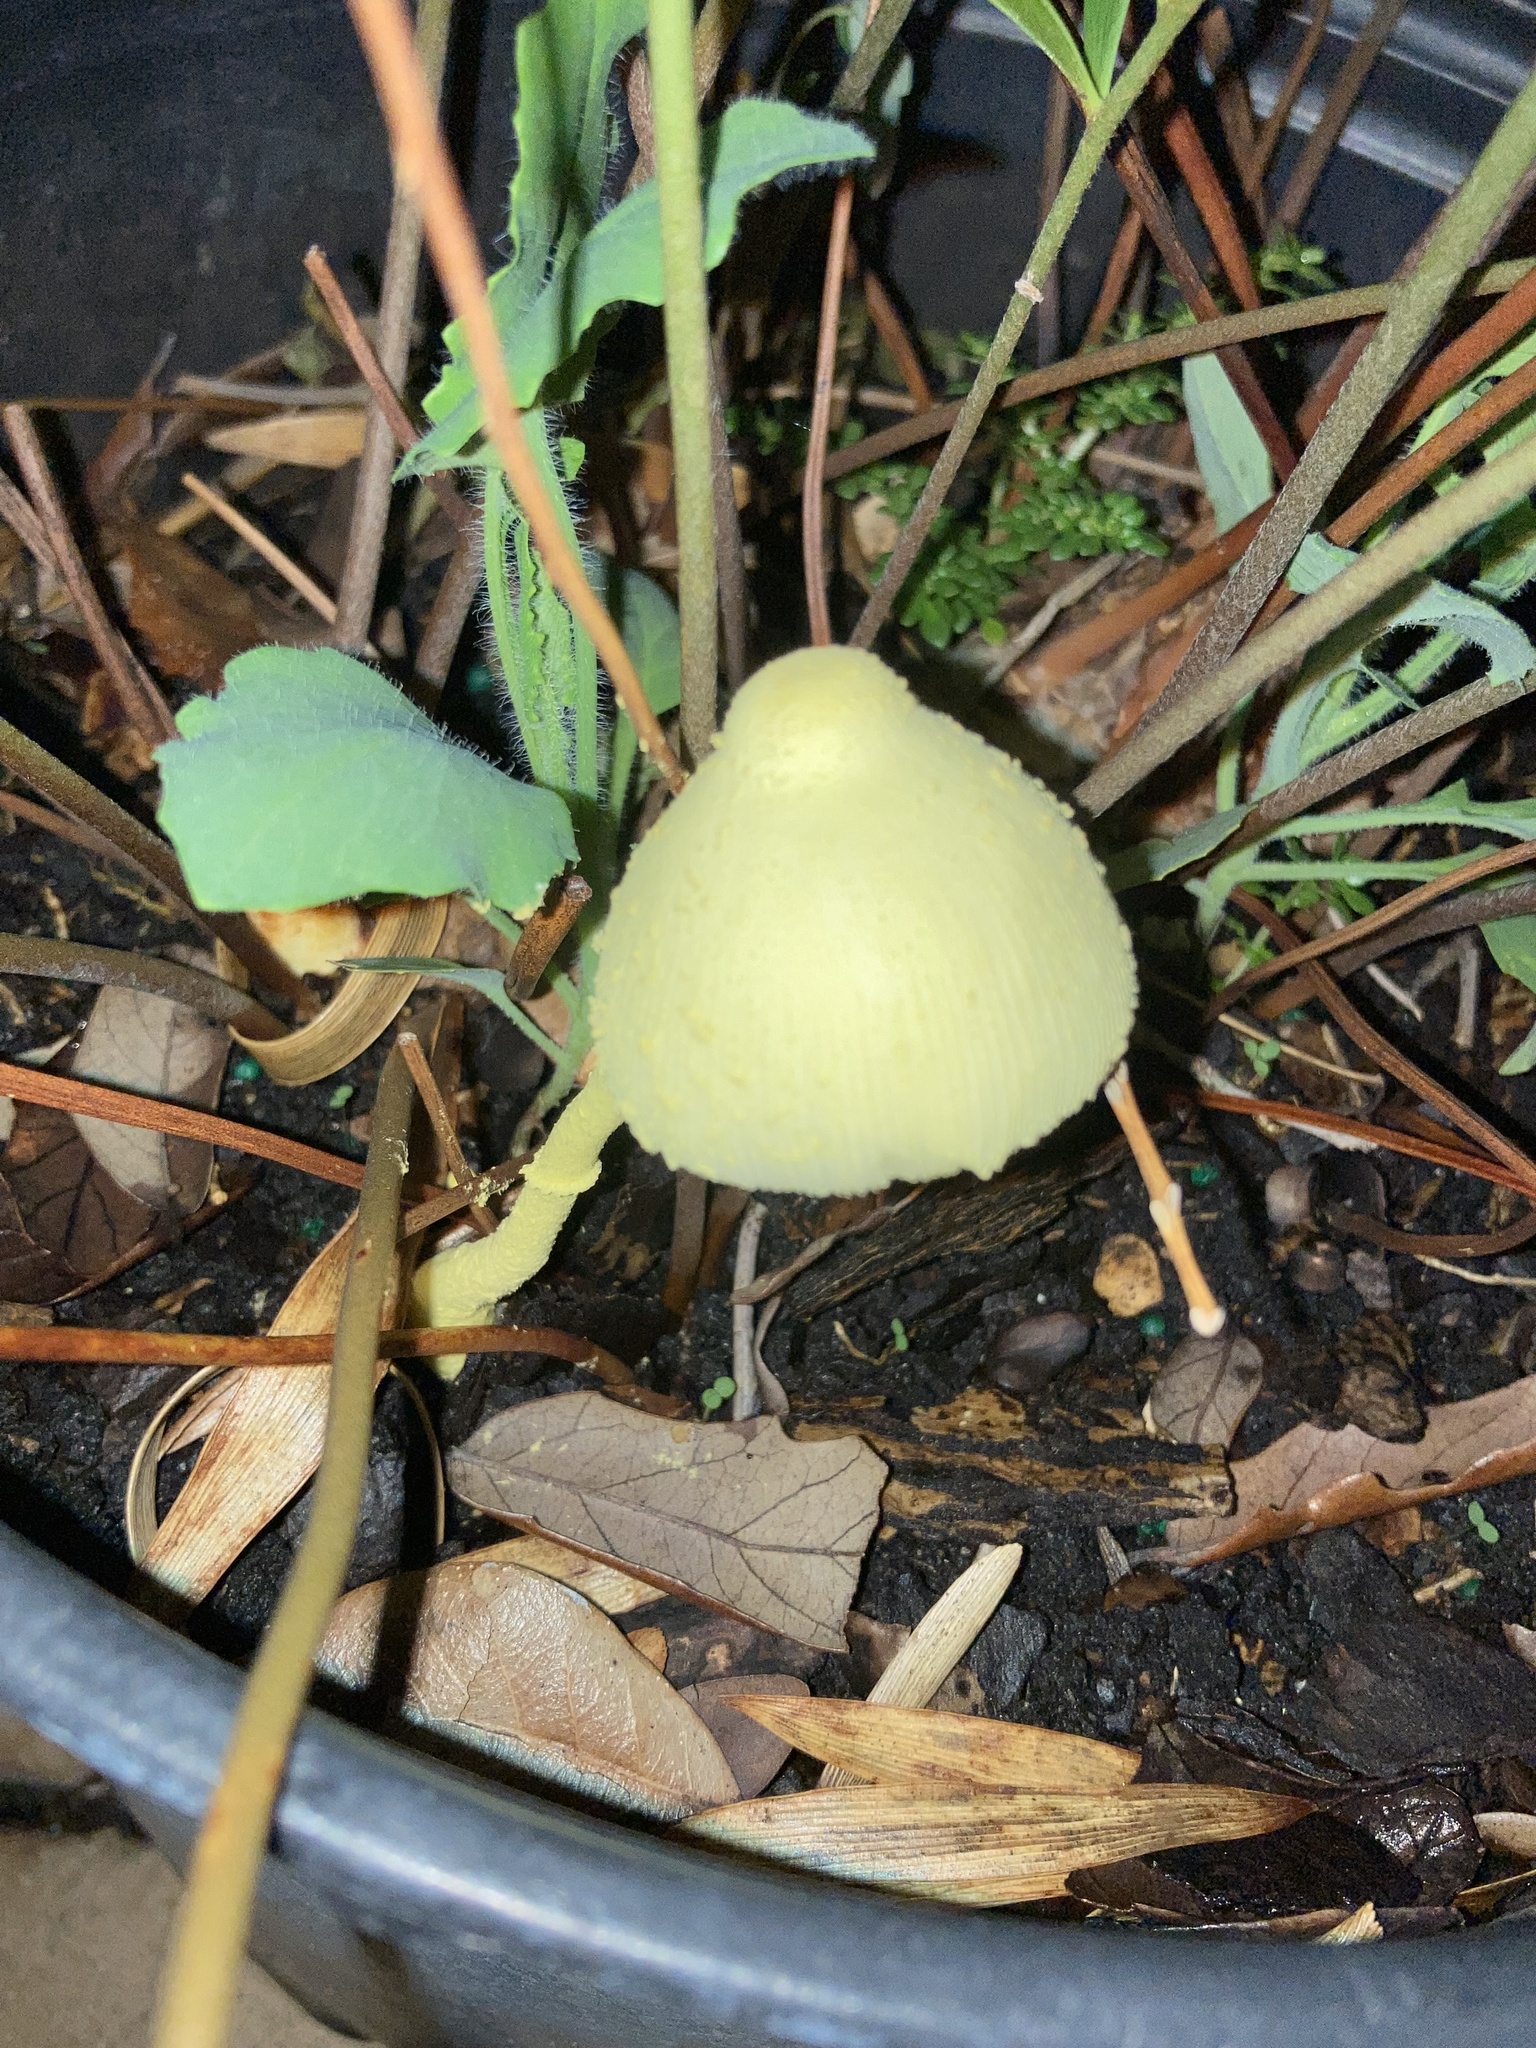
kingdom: Fungi
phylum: Basidiomycota
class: Agaricomycetes
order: Agaricales
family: Agaricaceae
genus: Leucocoprinus
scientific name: Leucocoprinus birnbaumii
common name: Plantpot dapperling
